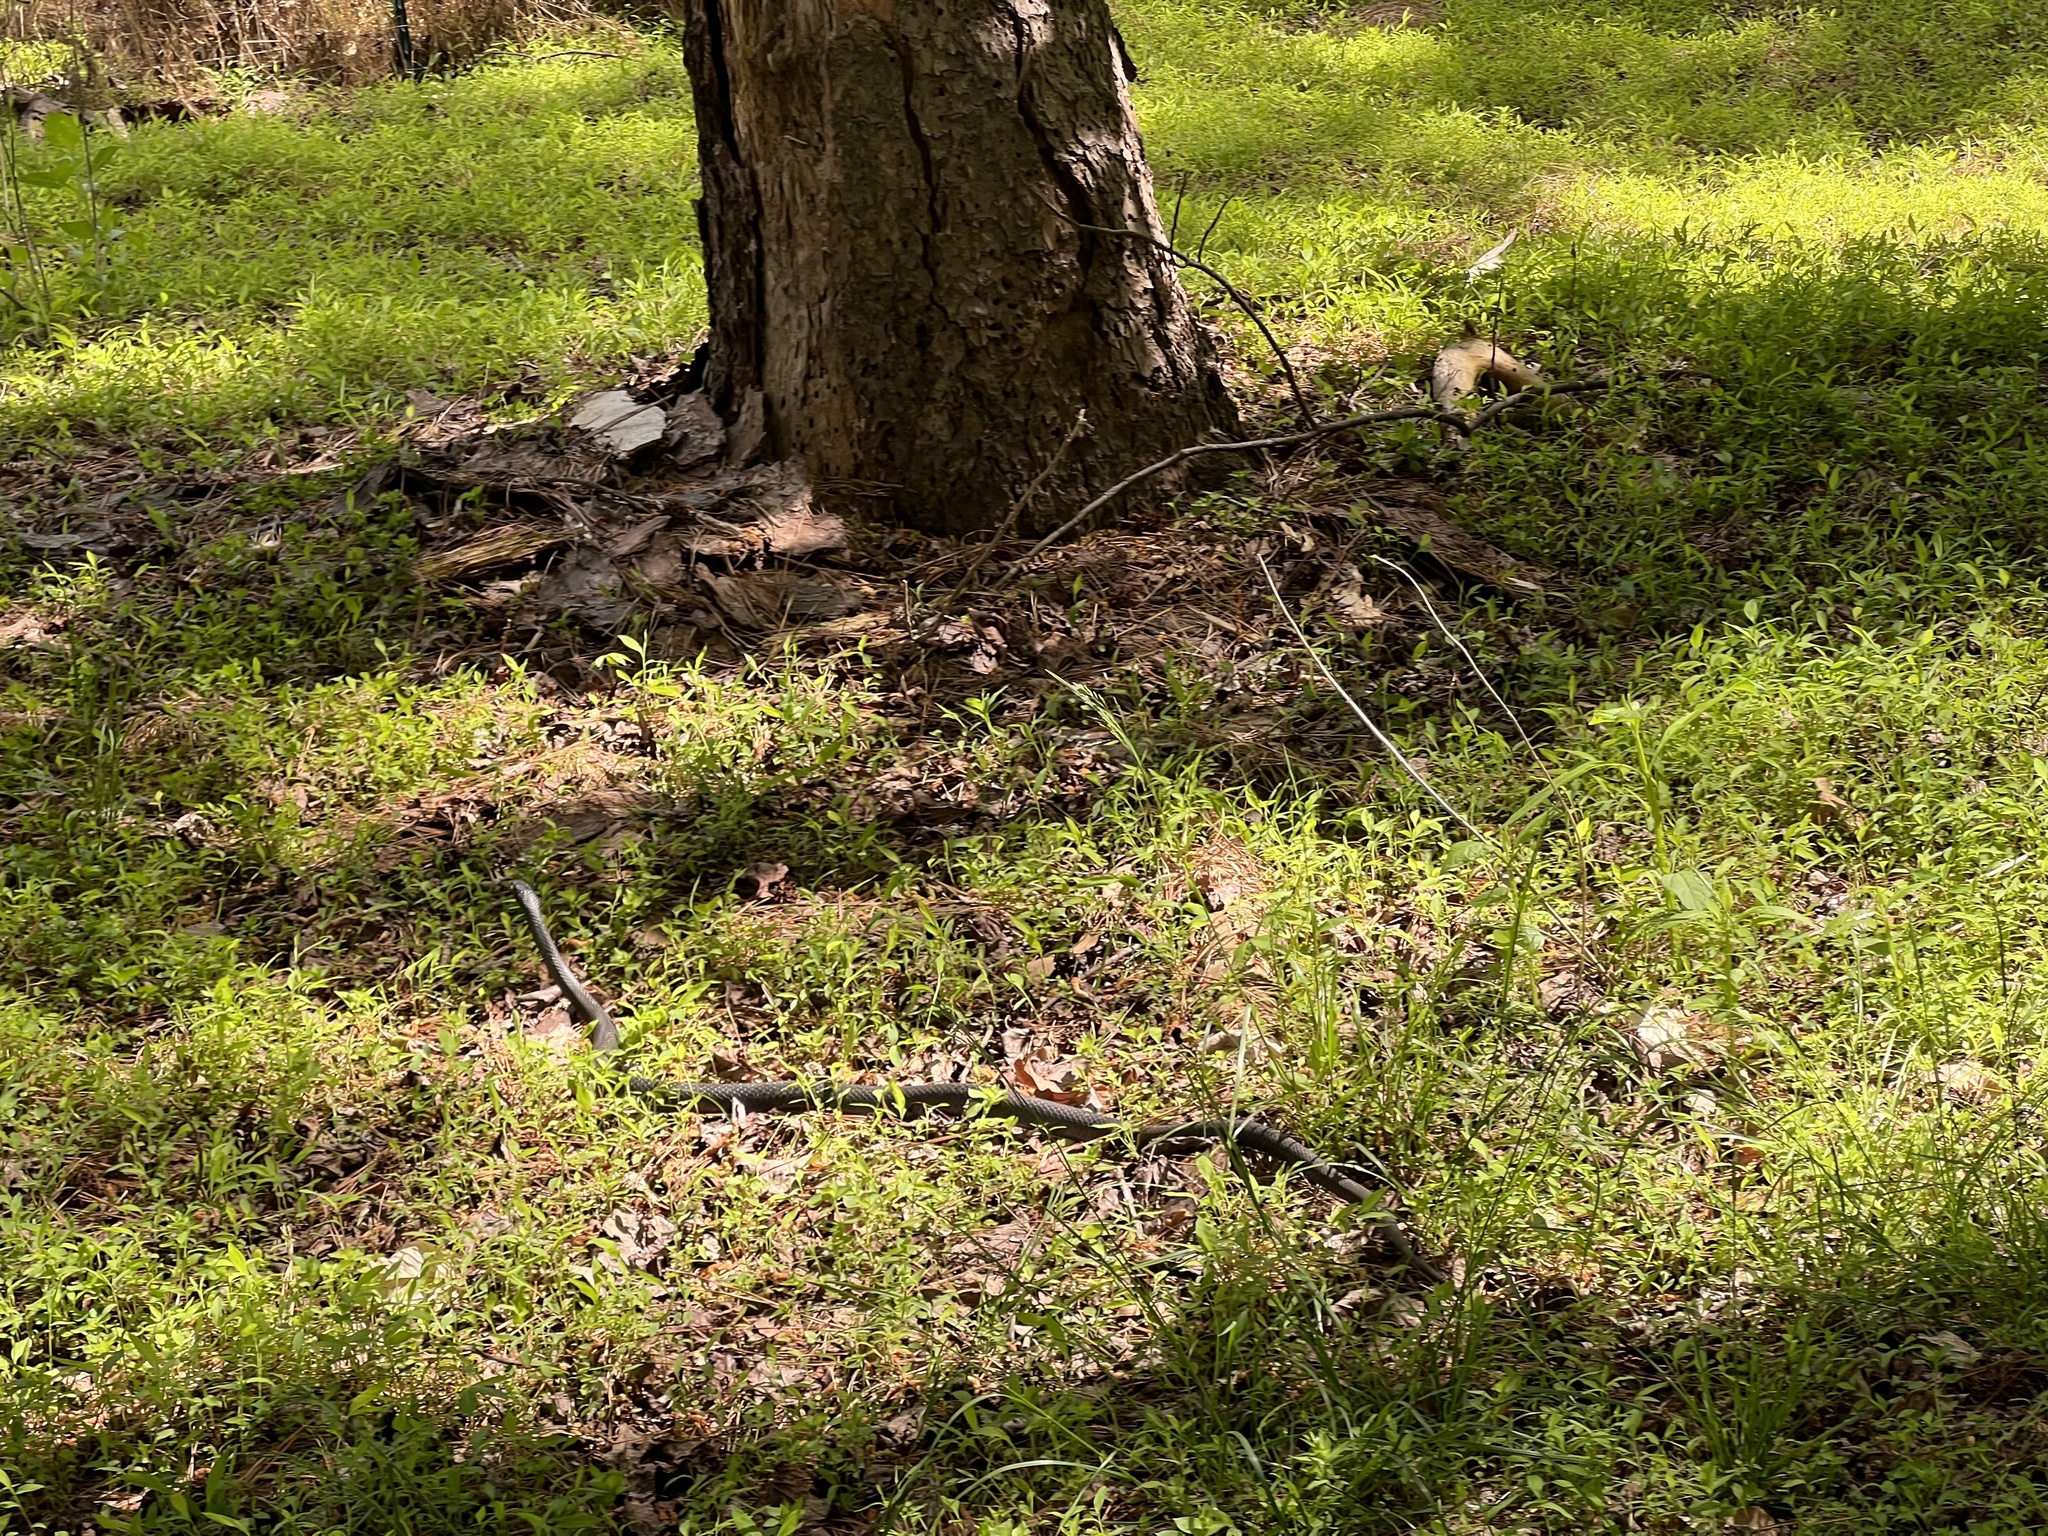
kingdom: Animalia
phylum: Chordata
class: Squamata
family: Colubridae
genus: Coluber
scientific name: Coluber constrictor
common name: Eastern racer
